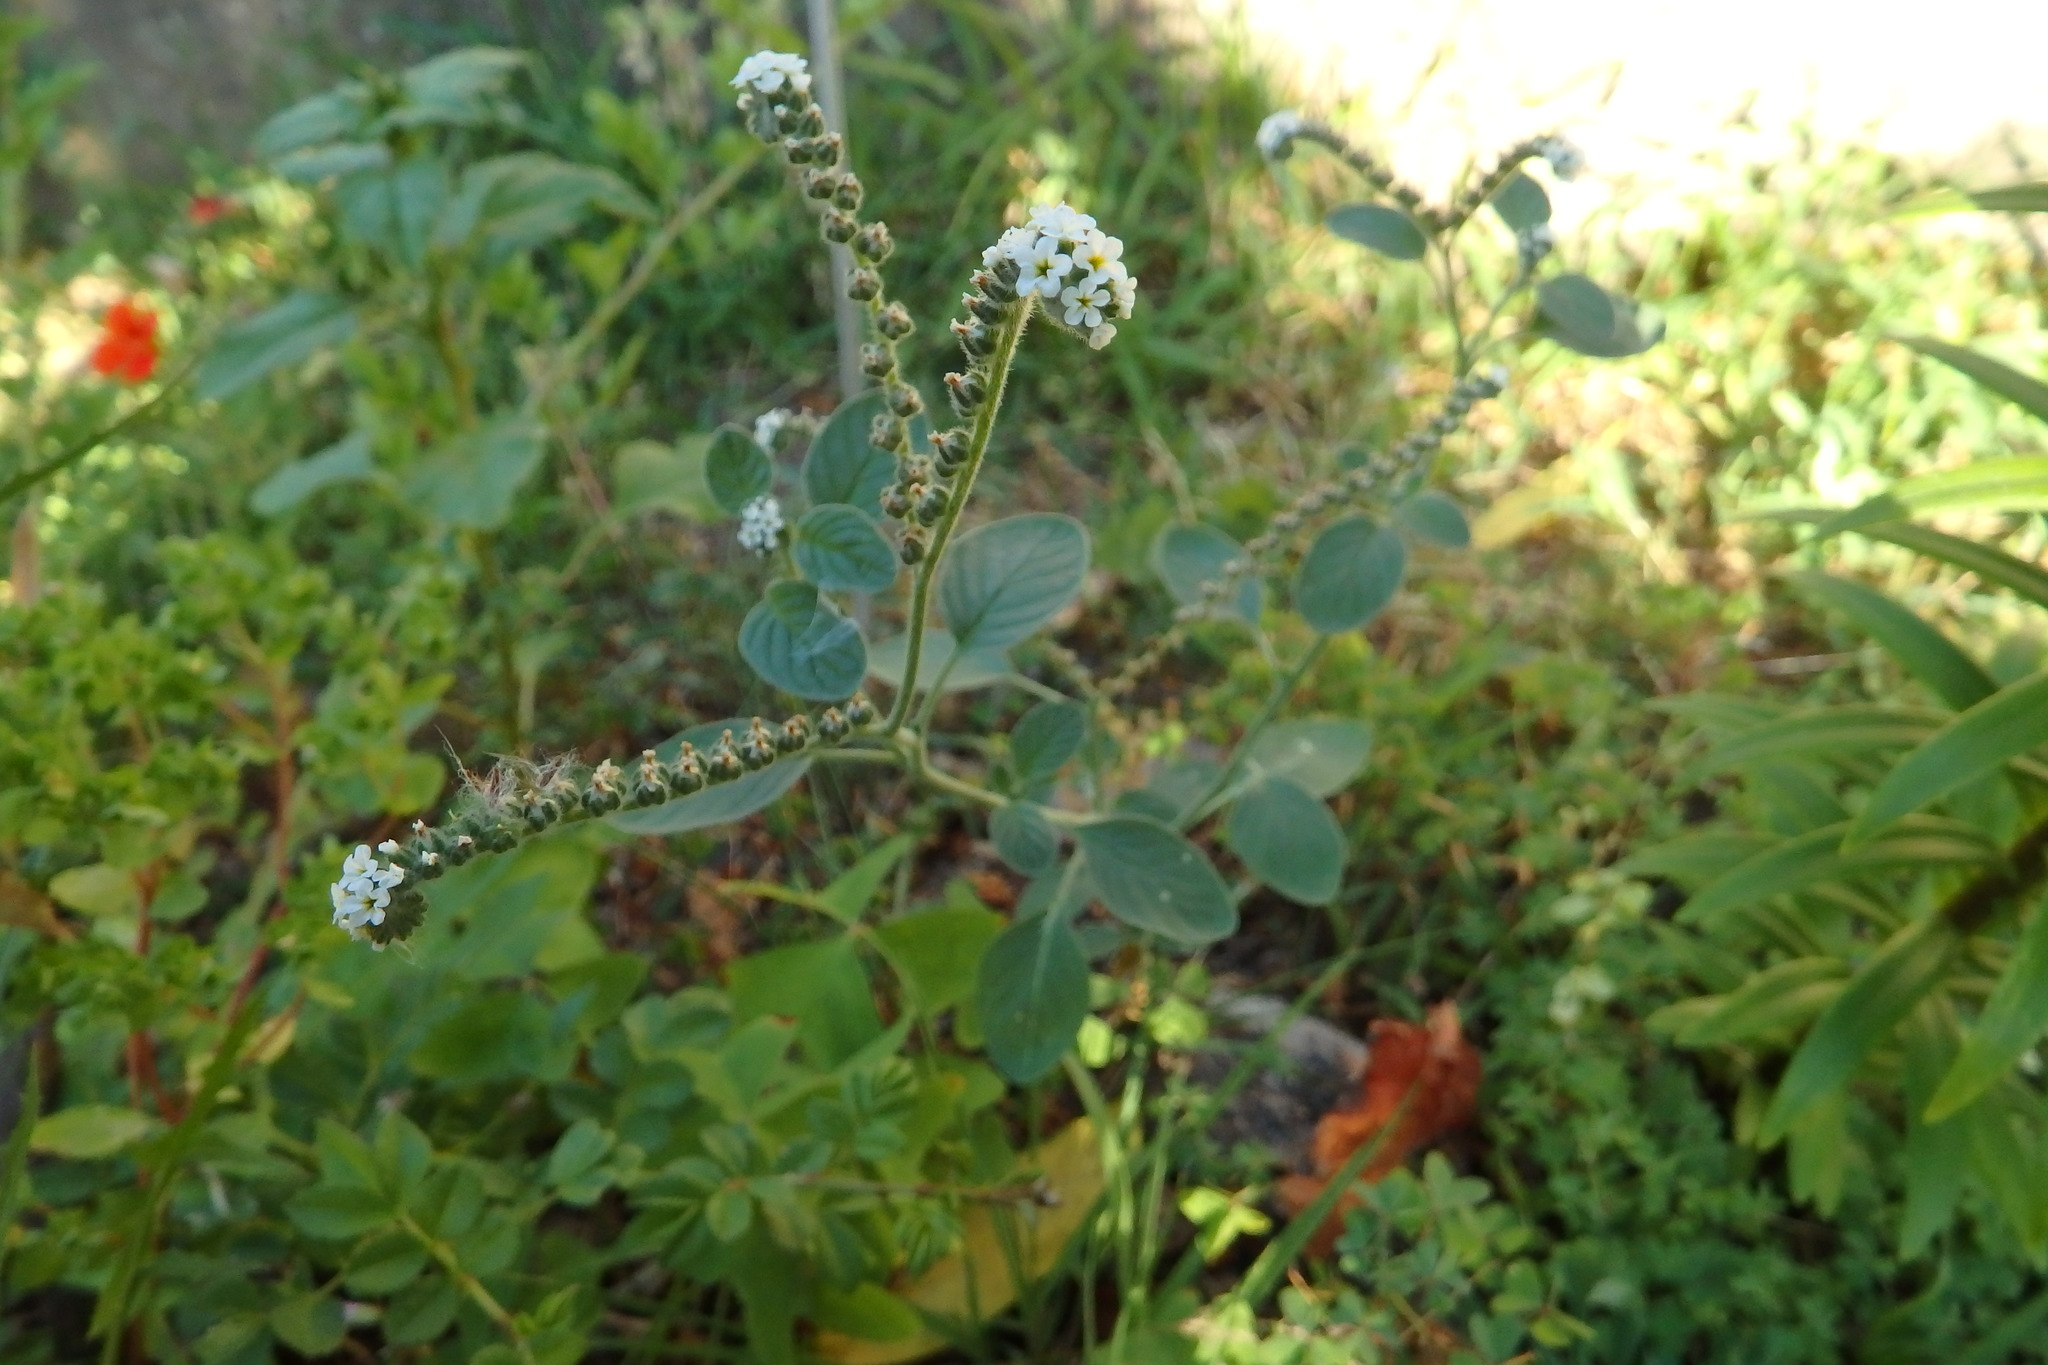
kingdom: Plantae
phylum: Tracheophyta
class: Magnoliopsida
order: Boraginales
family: Heliotropiaceae
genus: Heliotropium
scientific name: Heliotropium europaeum
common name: European heliotrope
